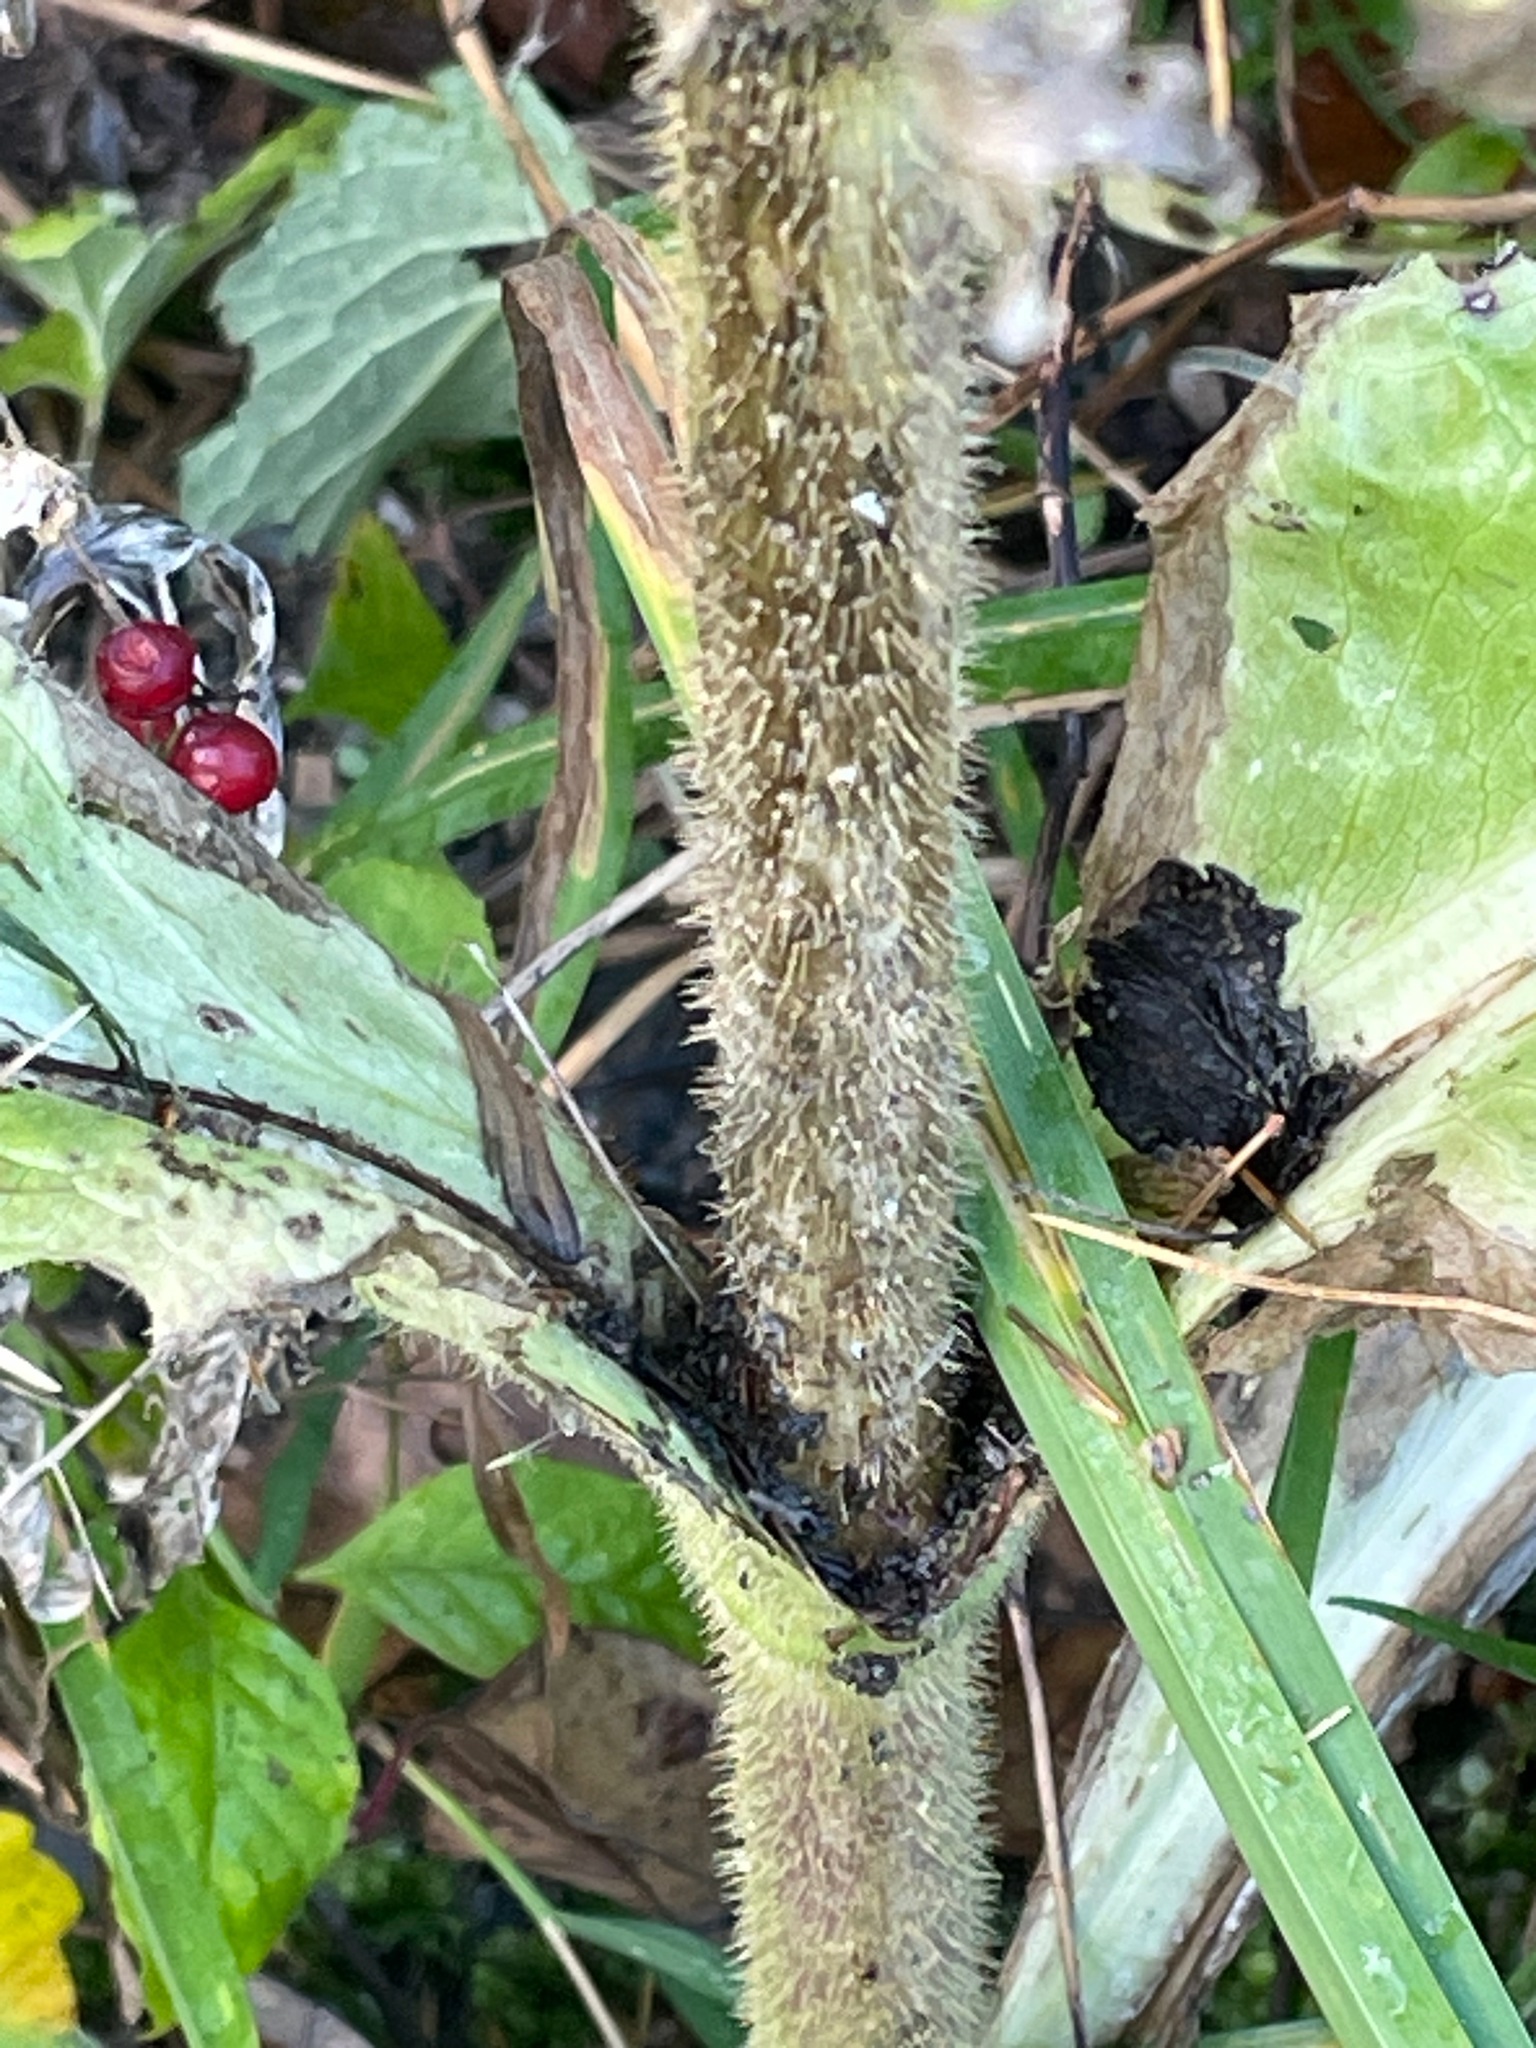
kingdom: Plantae
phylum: Tracheophyta
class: Magnoliopsida
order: Dipsacales
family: Caprifoliaceae
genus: Dipsacus
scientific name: Dipsacus laciniatus
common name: Cut-leaved teasel
